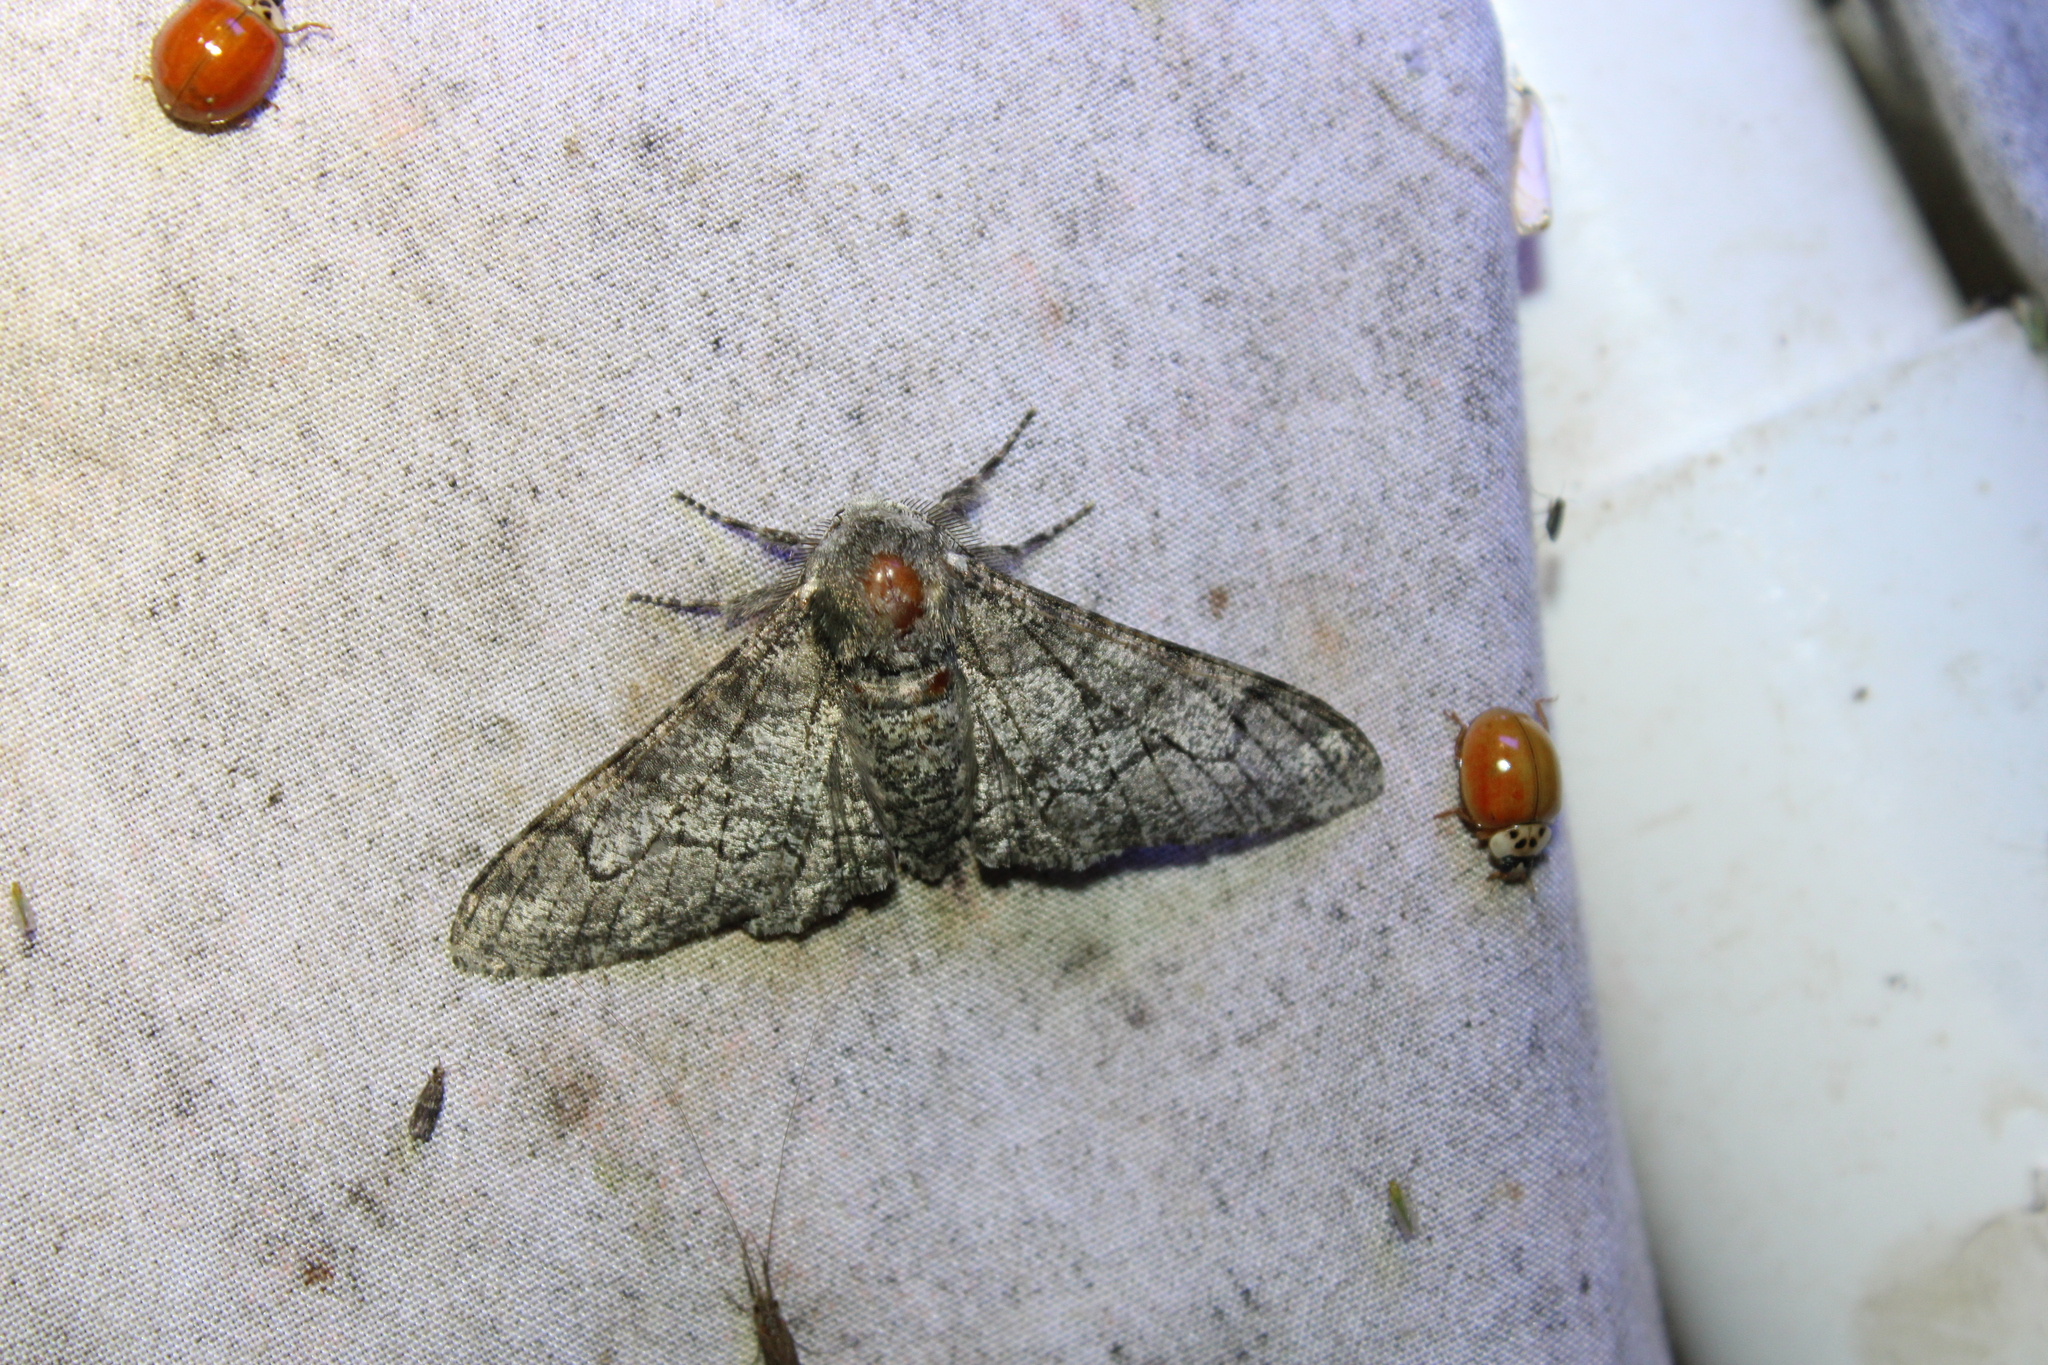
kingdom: Animalia
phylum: Arthropoda
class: Insecta
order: Lepidoptera
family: Geometridae
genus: Biston
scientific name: Biston betularia
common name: Peppered moth
